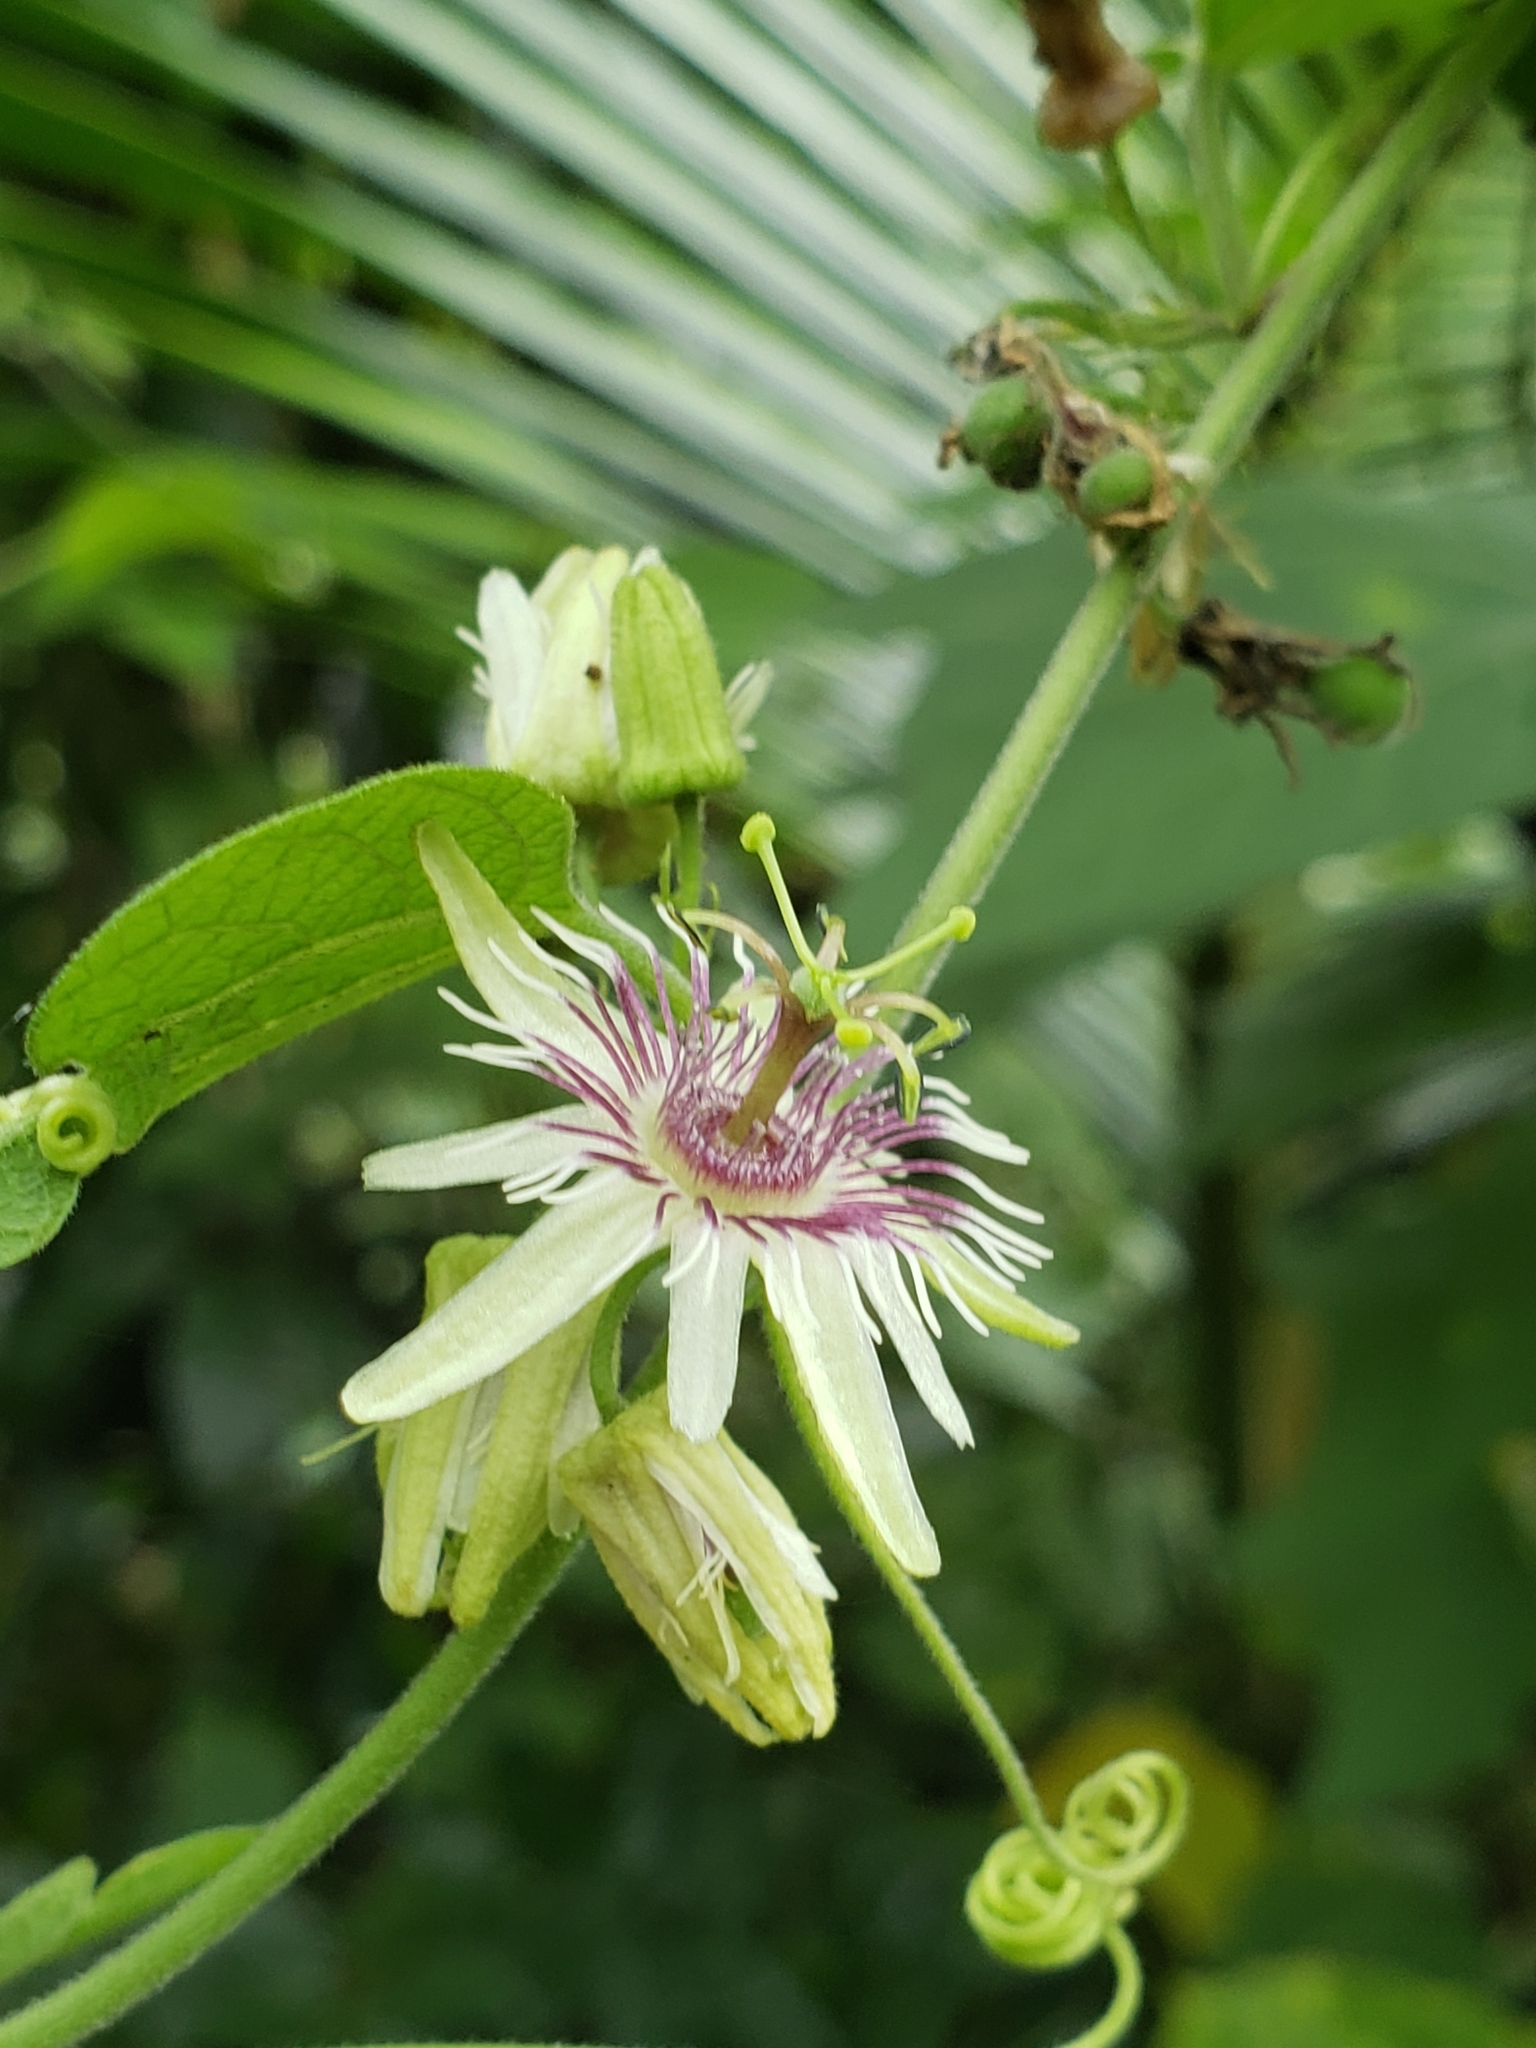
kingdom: Plantae
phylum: Tracheophyta
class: Magnoliopsida
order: Malpighiales
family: Passifloraceae
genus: Passiflora
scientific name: Passiflora sexflora
